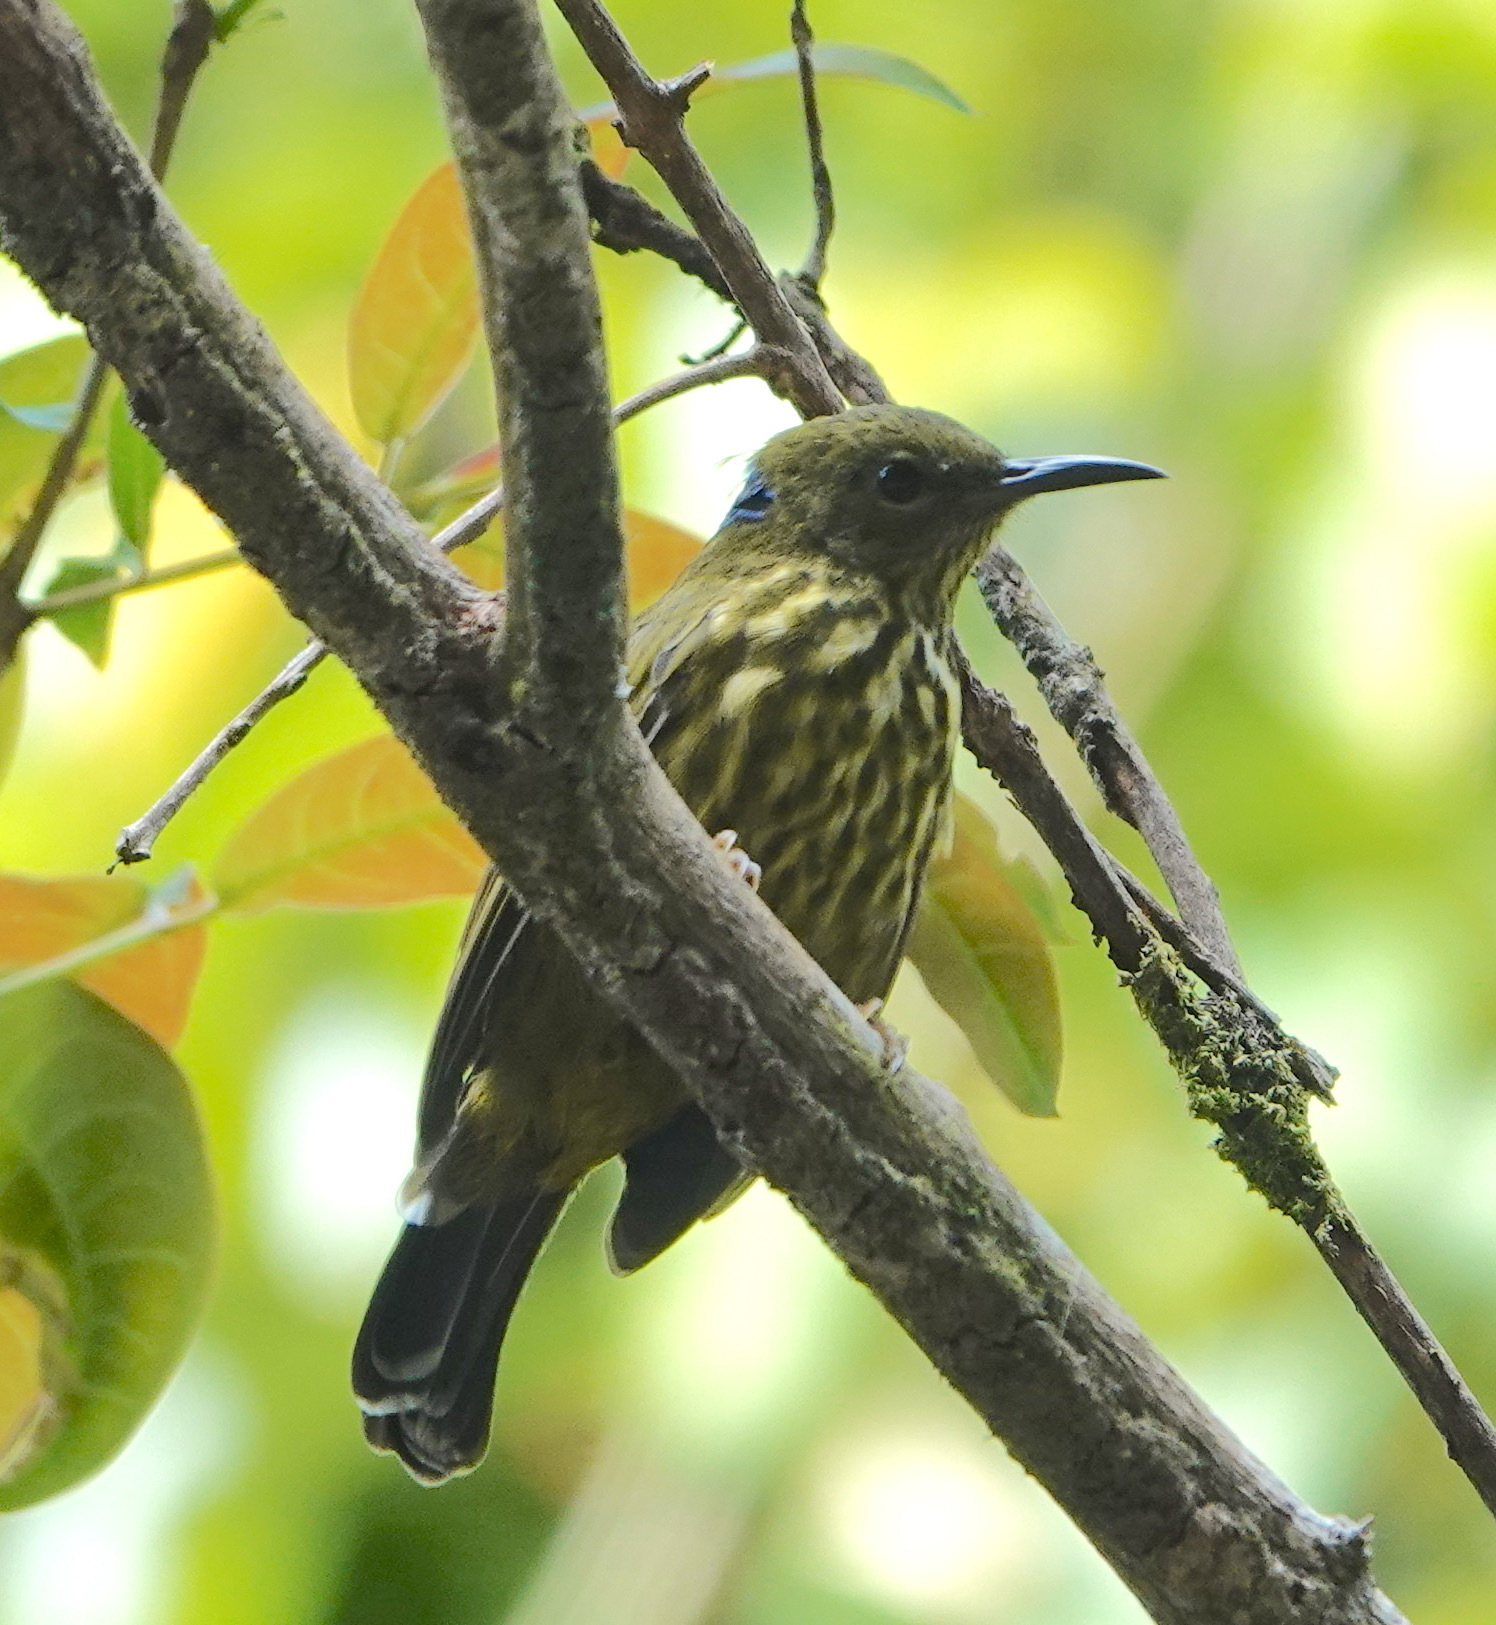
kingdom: Animalia
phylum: Chordata
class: Aves
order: Passeriformes
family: Nectariniidae
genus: Hypogramma
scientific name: Hypogramma hypogrammicum
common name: Purple-naped sunbird
